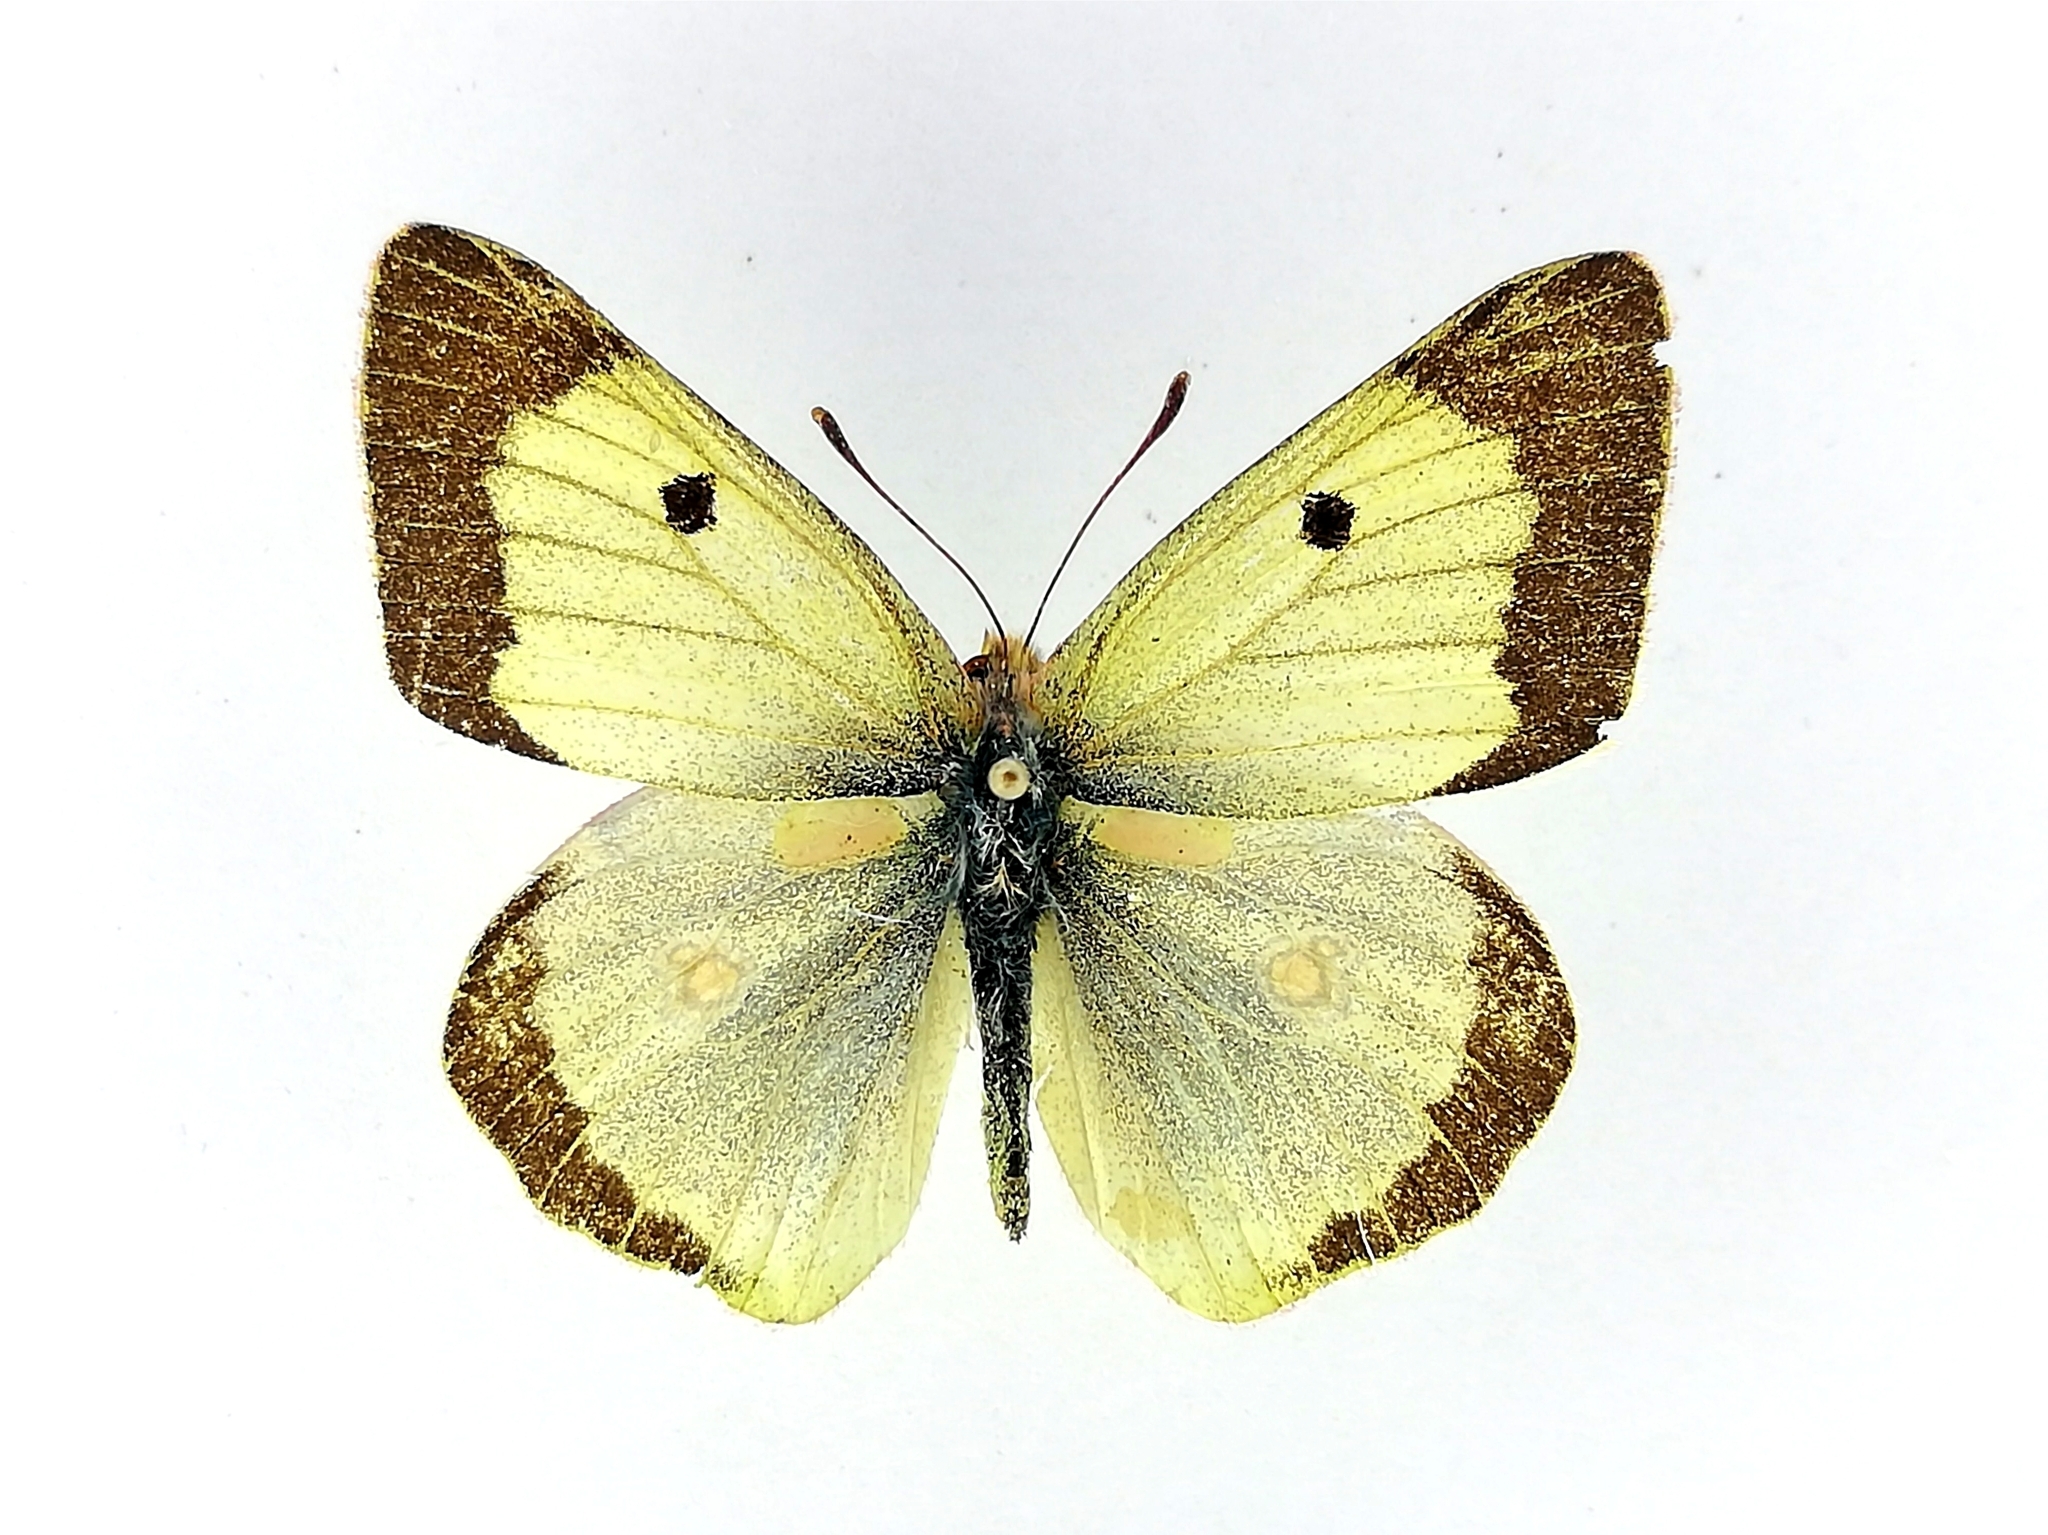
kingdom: Animalia
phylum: Arthropoda
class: Insecta
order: Lepidoptera
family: Pieridae
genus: Colias
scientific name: Colias chlorocoma
